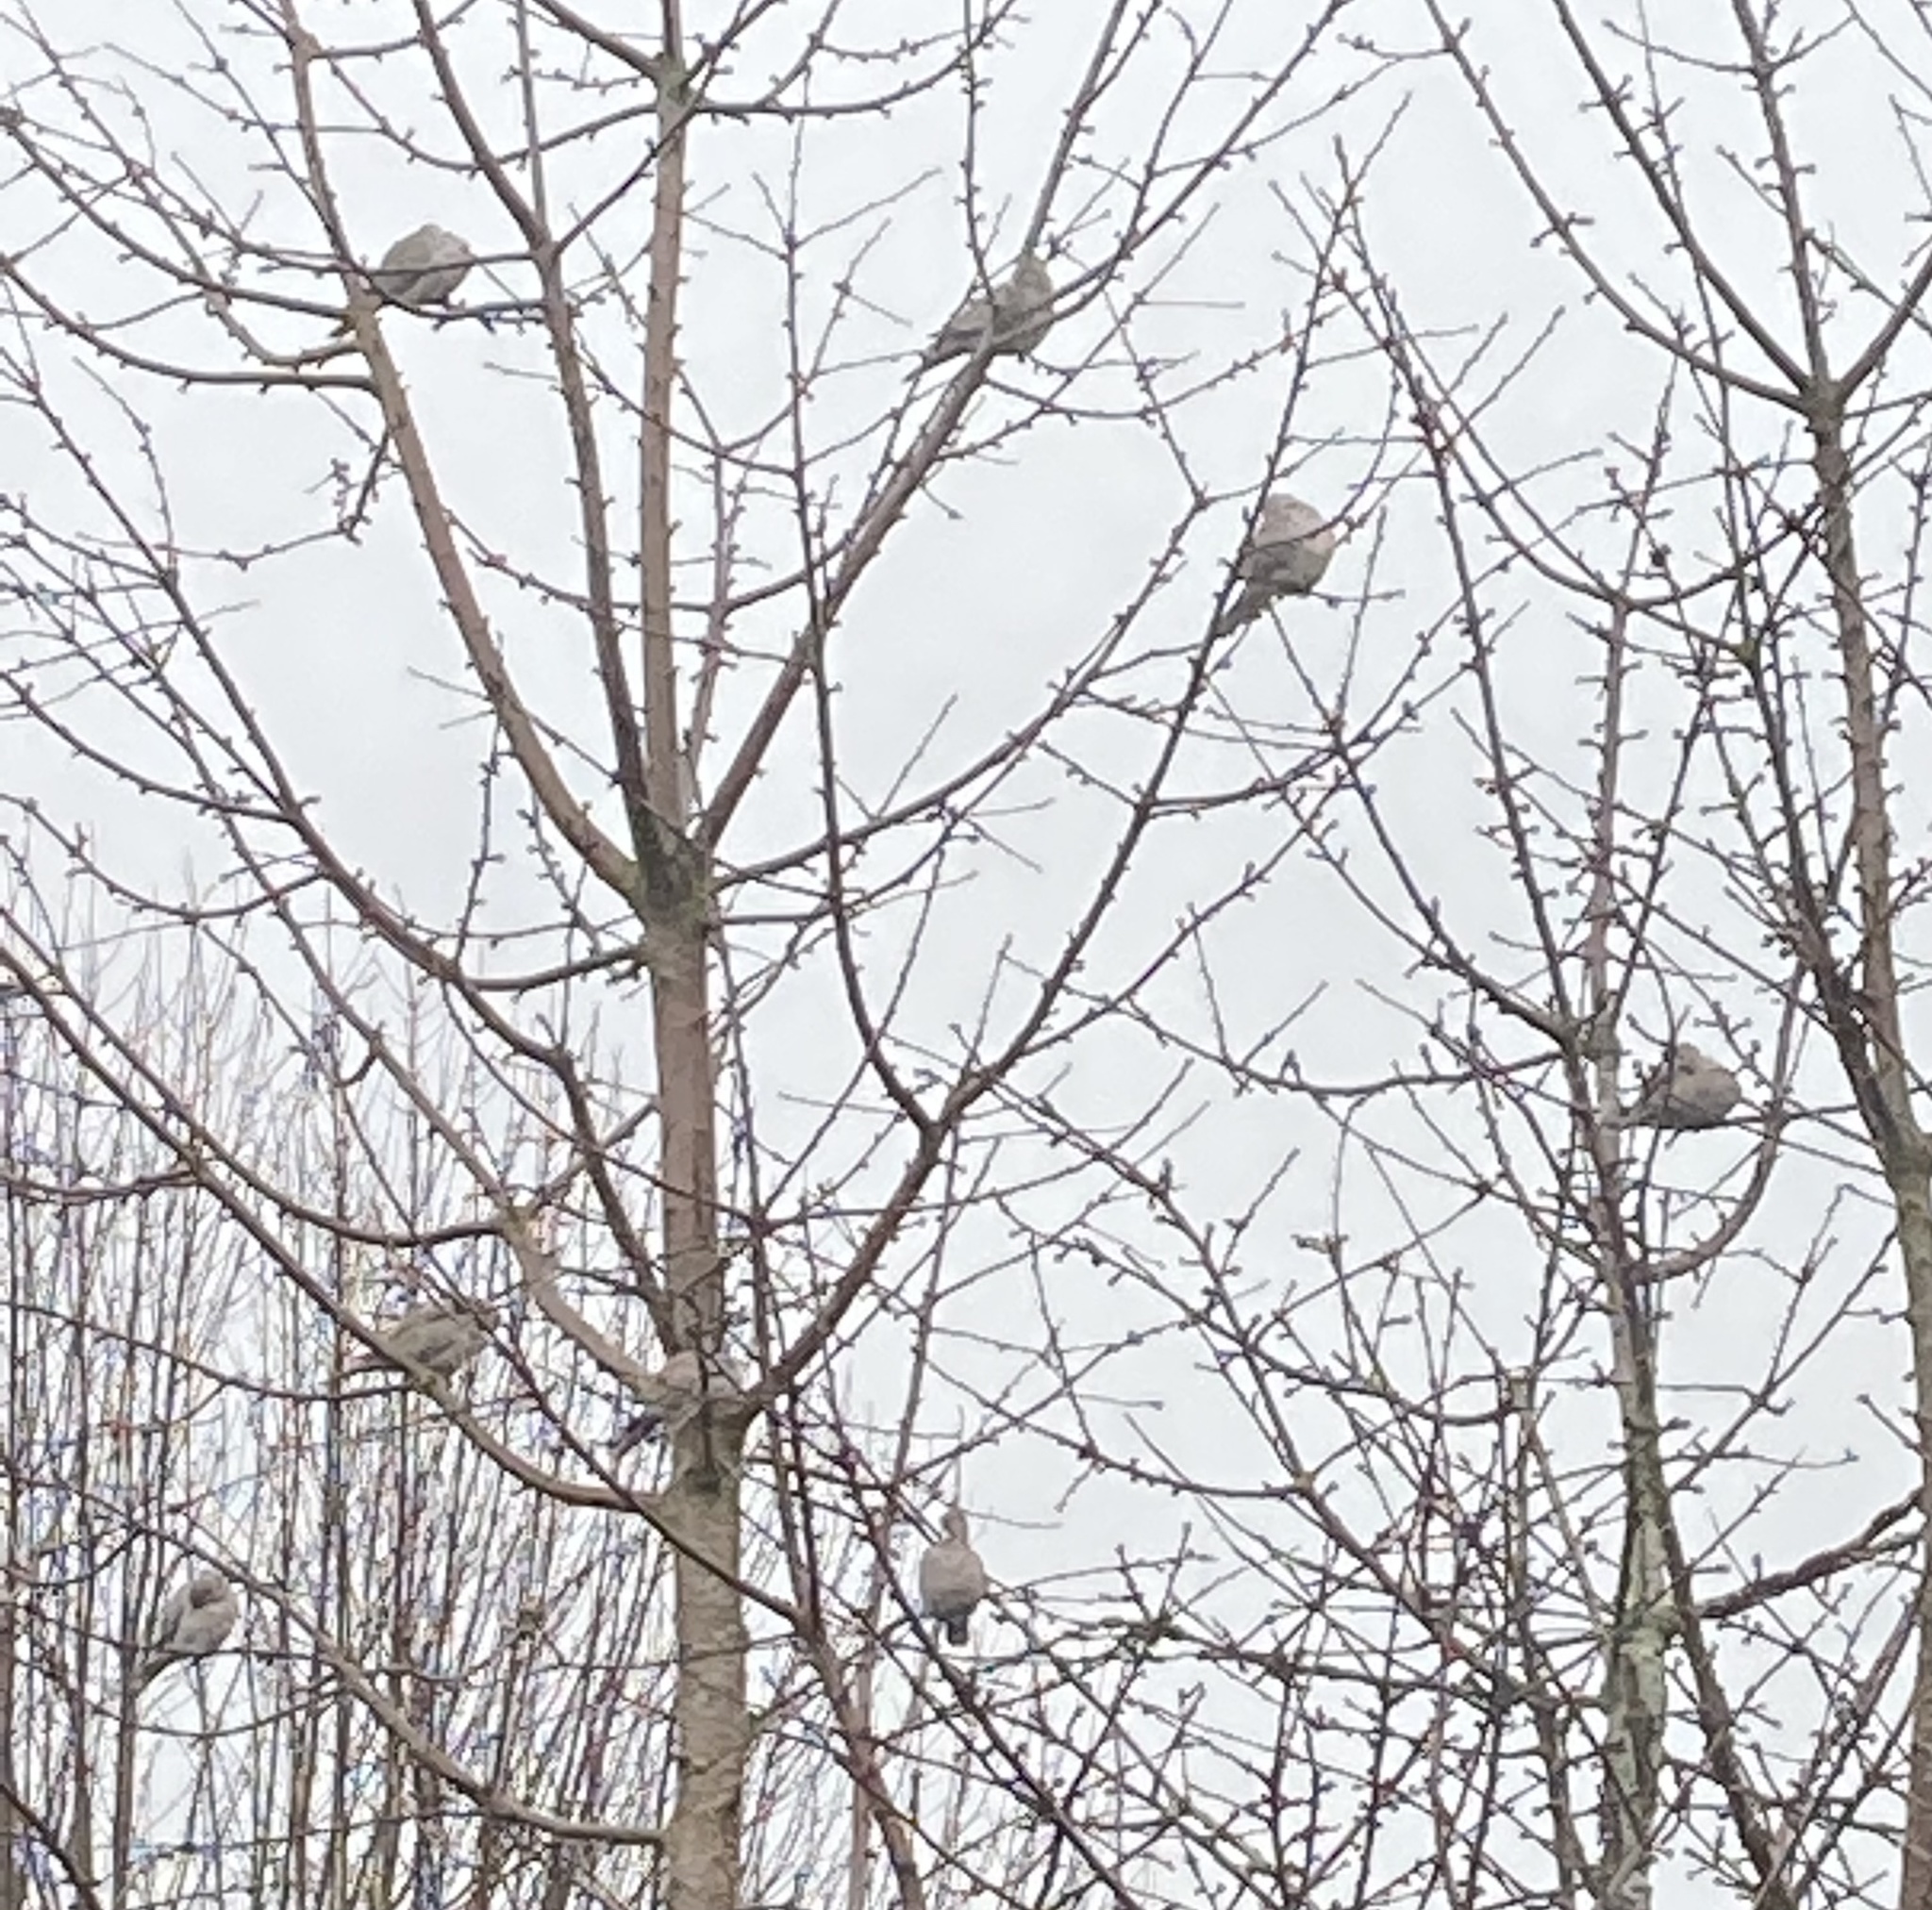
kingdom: Animalia
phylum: Chordata
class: Aves
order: Columbiformes
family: Columbidae
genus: Streptopelia
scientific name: Streptopelia decaocto
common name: Eurasian collared dove
